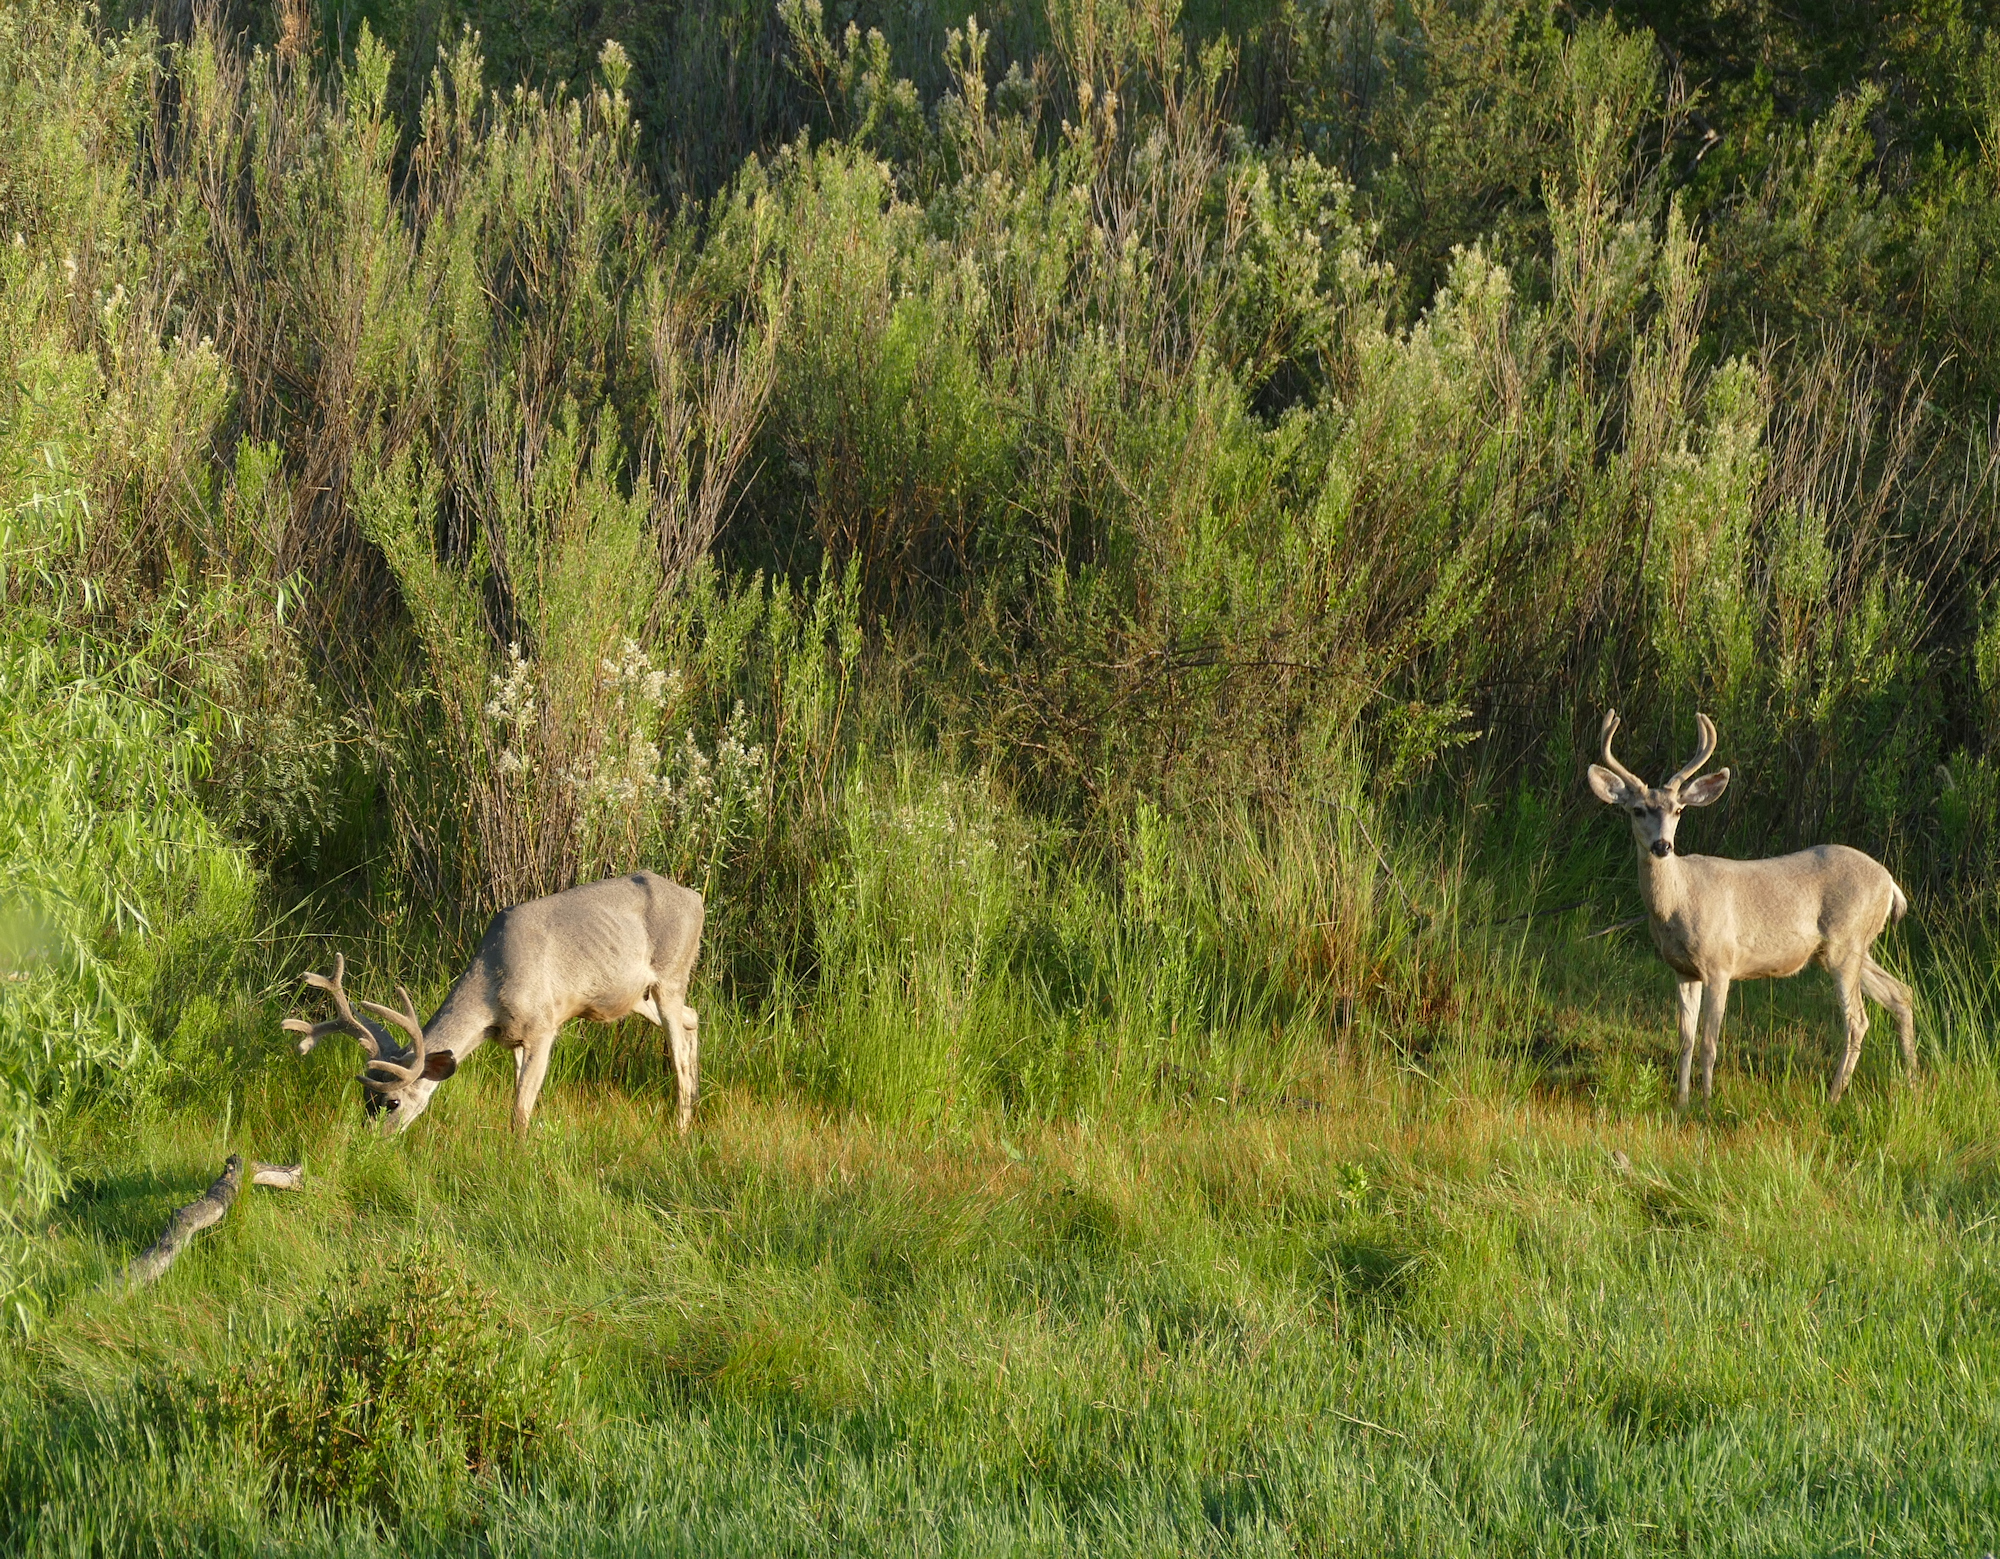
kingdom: Animalia
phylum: Chordata
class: Mammalia
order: Artiodactyla
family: Cervidae
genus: Odocoileus
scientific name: Odocoileus hemionus
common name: Mule deer
